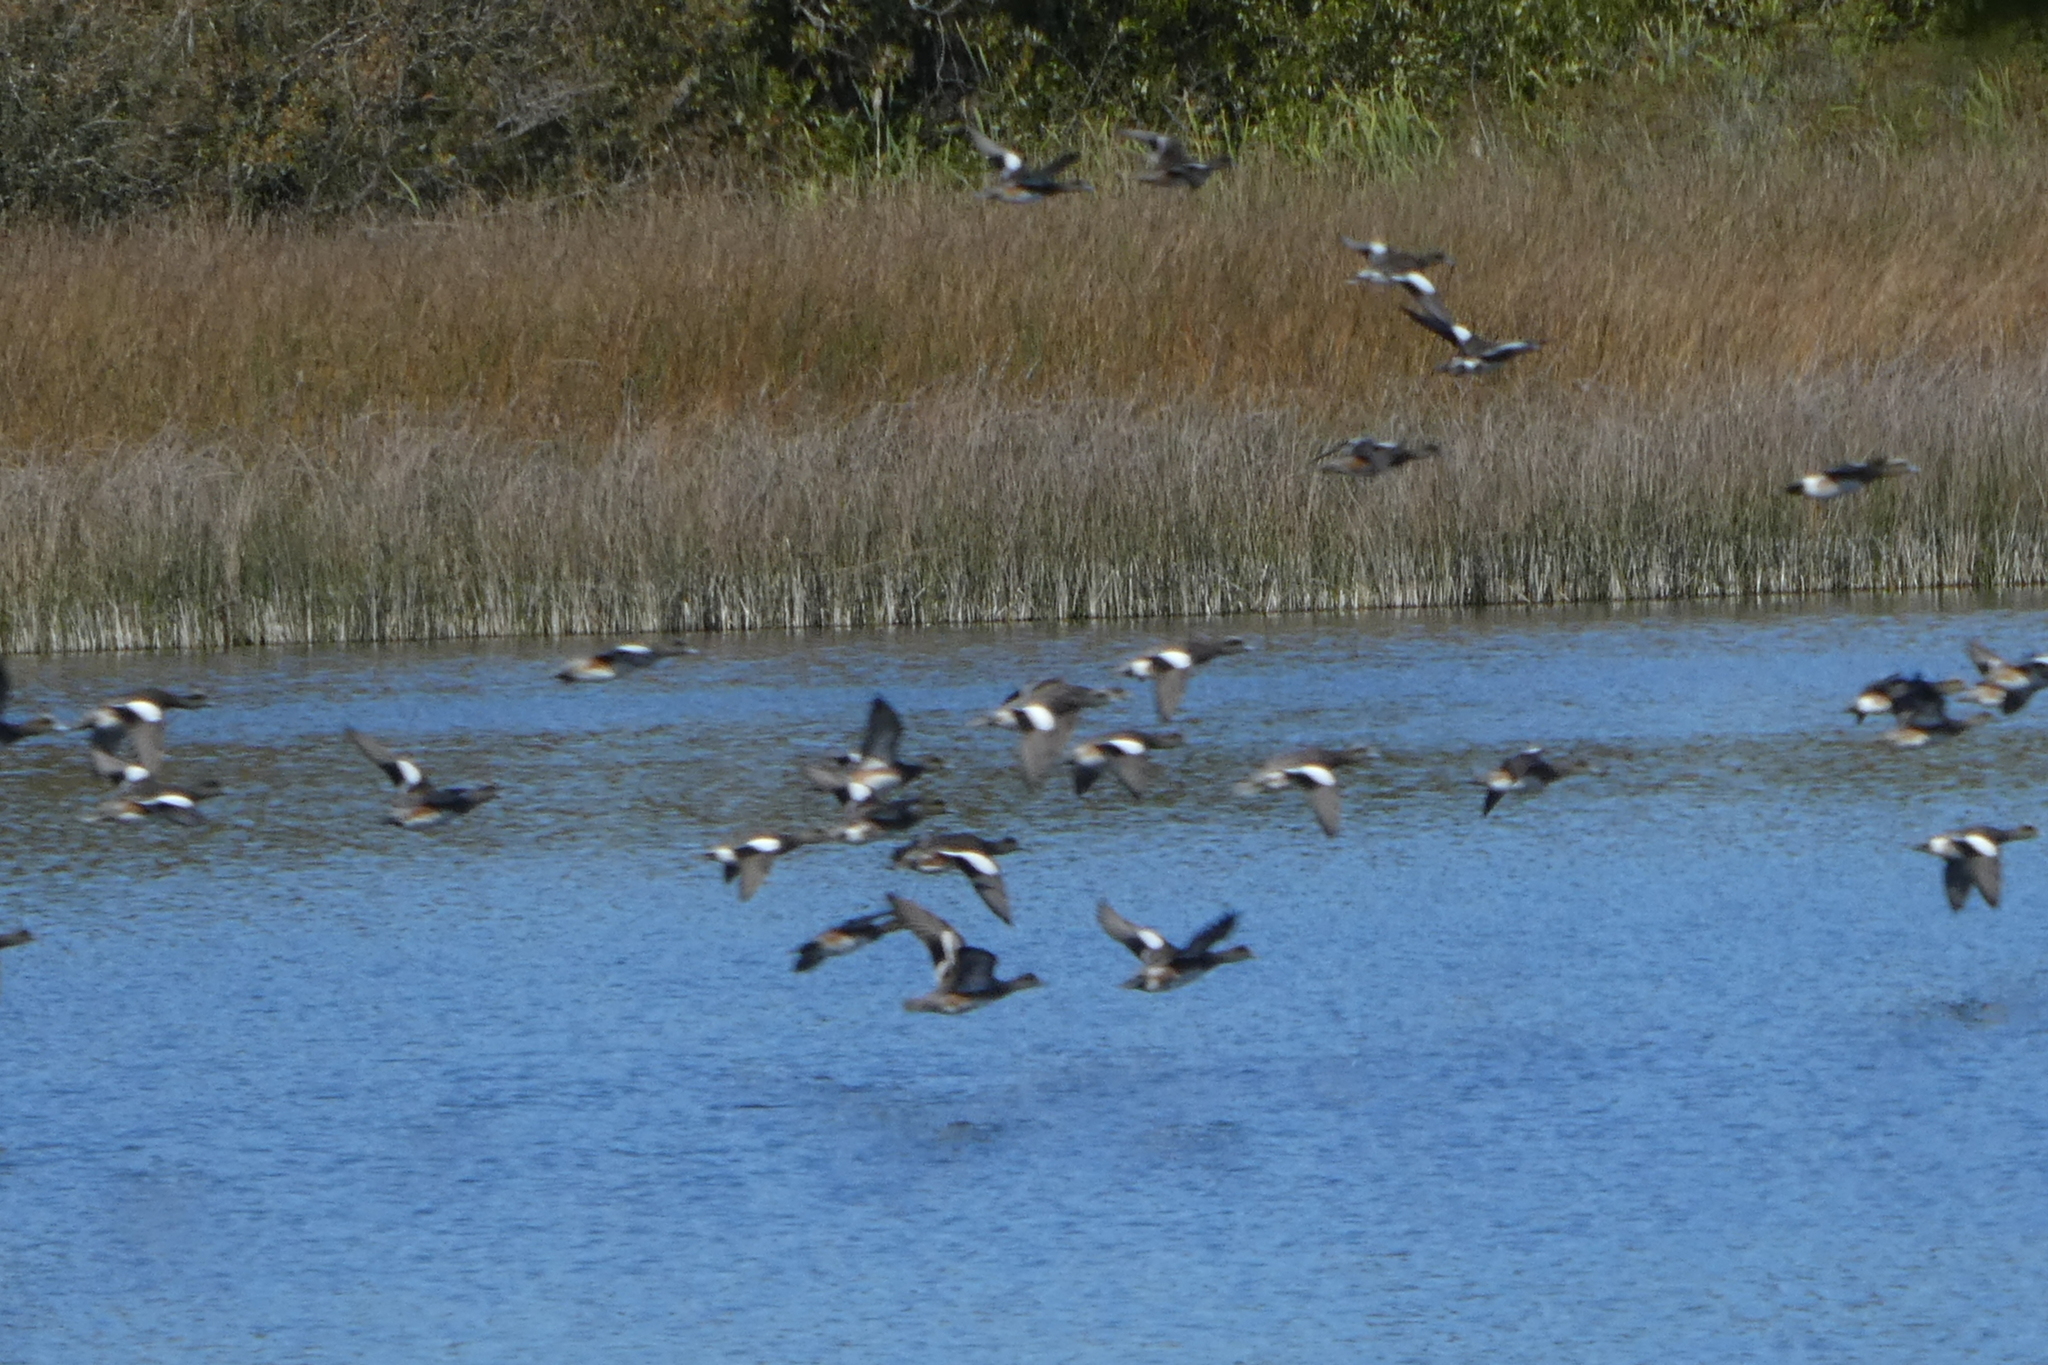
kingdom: Animalia
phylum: Chordata
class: Aves
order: Anseriformes
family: Anatidae
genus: Mareca
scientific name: Mareca americana
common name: American wigeon
